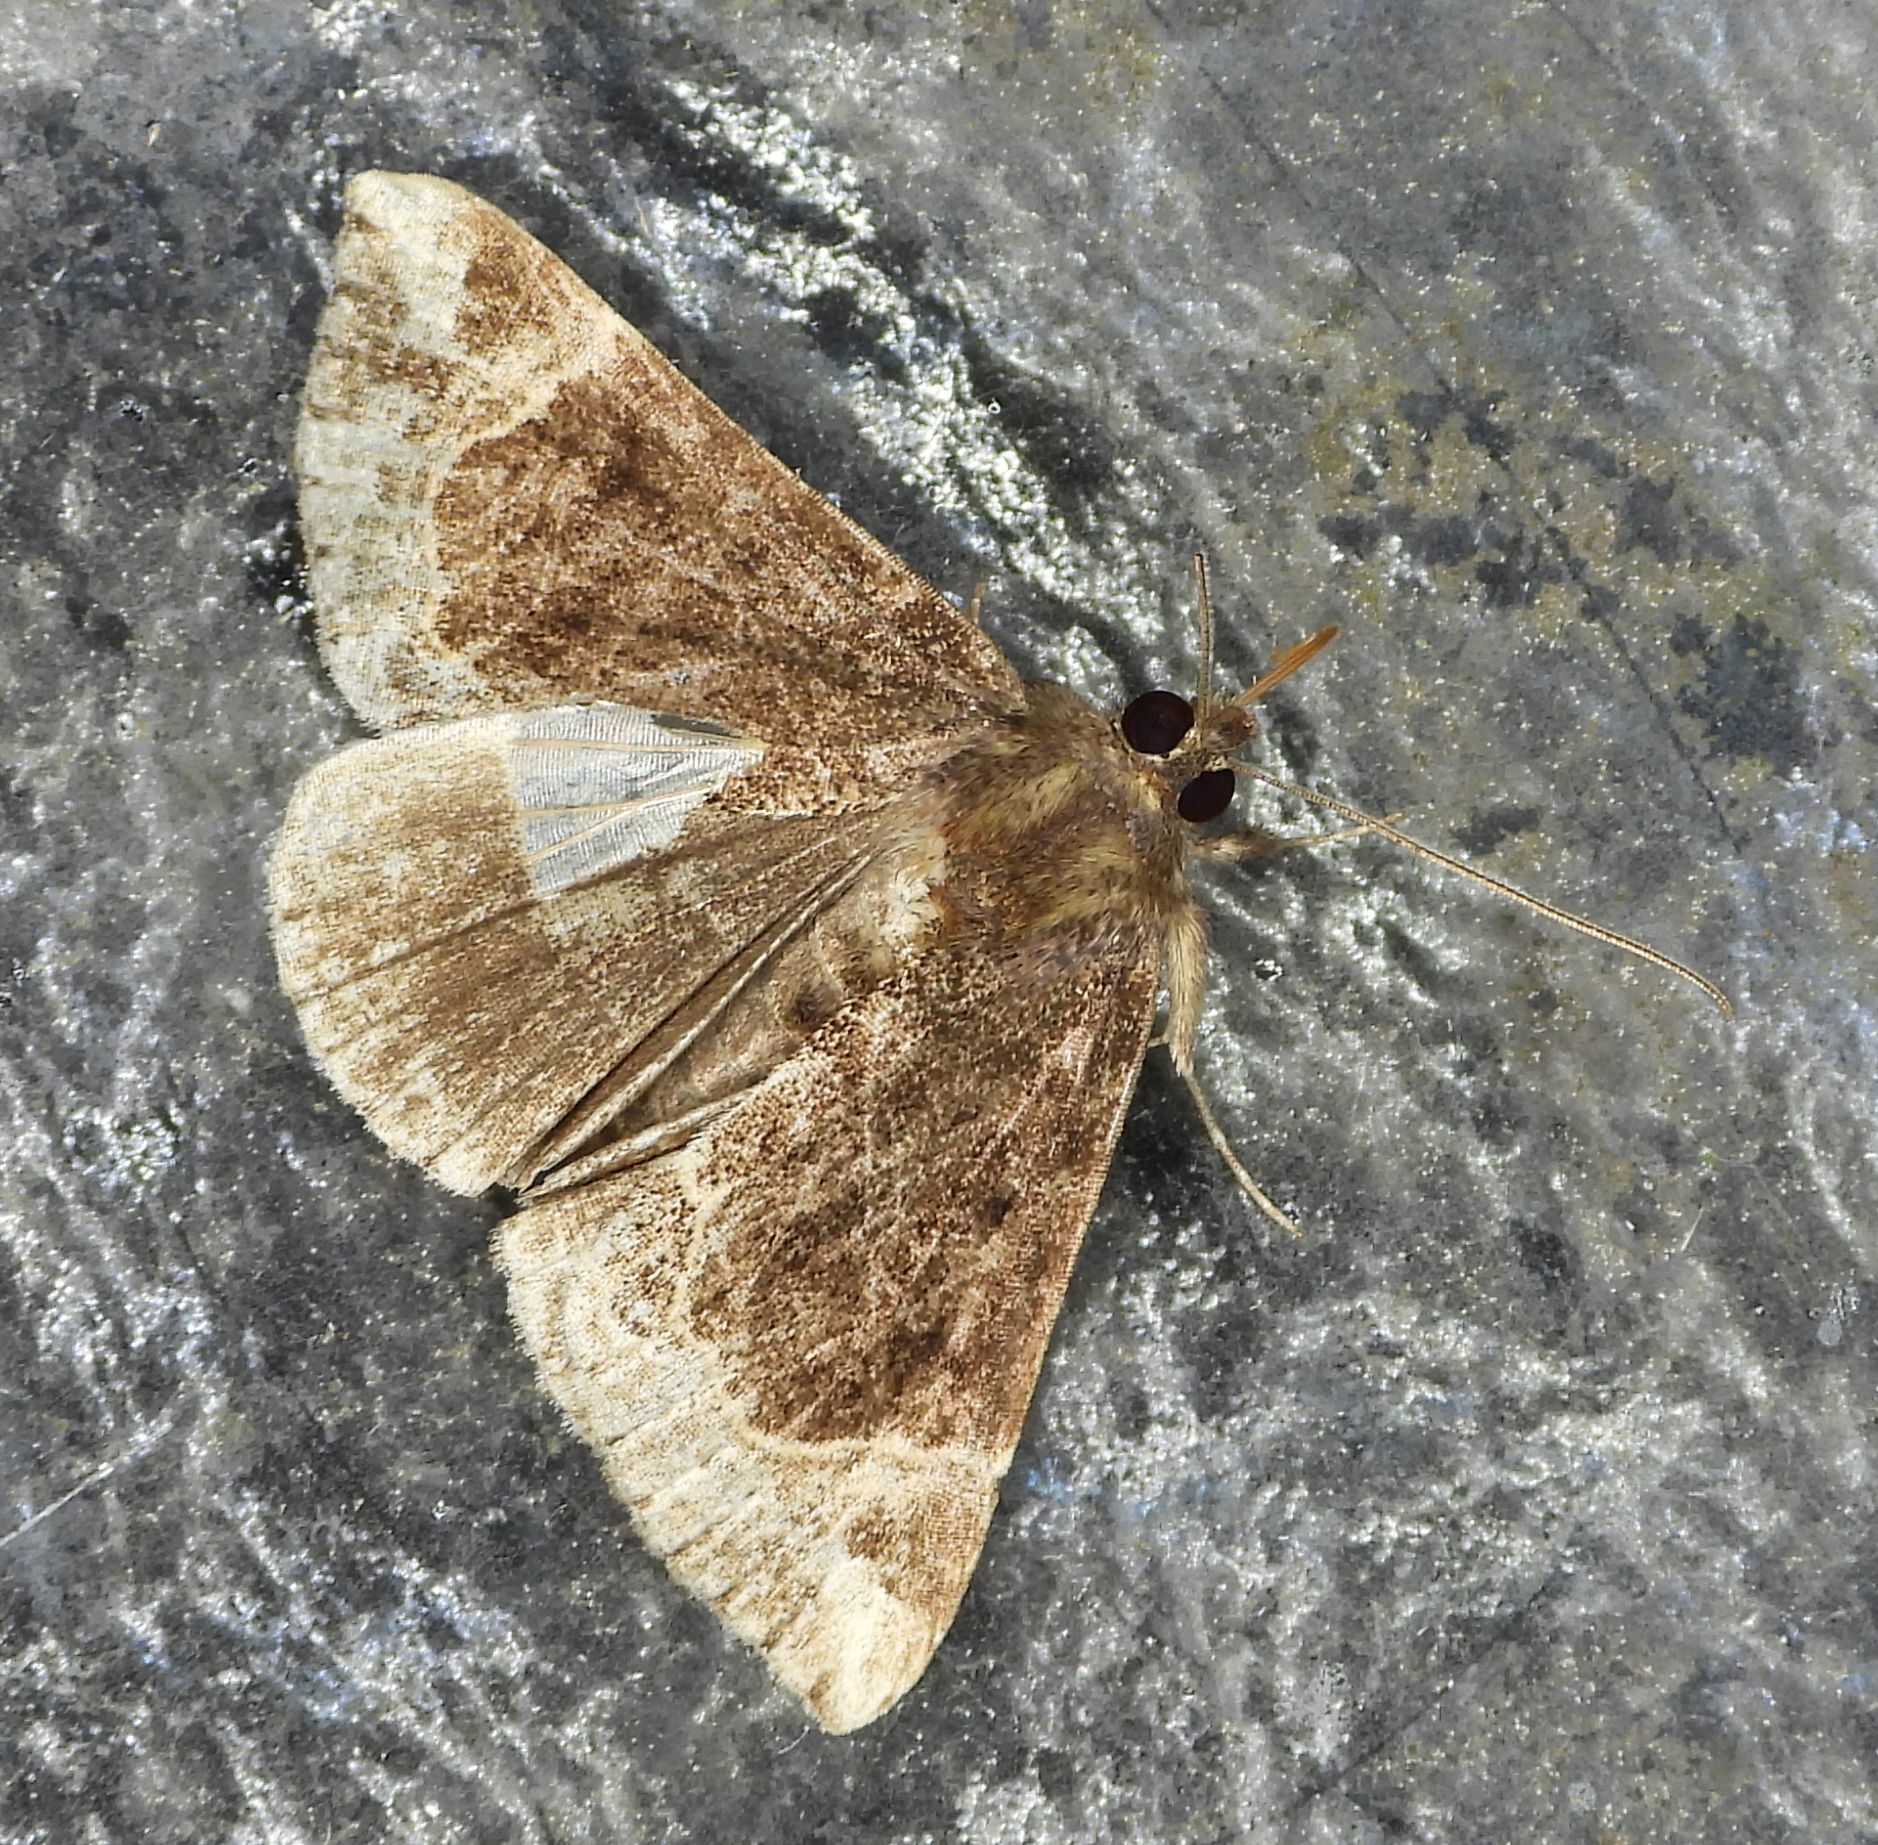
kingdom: Animalia
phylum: Arthropoda
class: Insecta
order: Lepidoptera
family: Erebidae
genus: Hypena
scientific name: Hypena abalienalis
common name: White-lined snout
